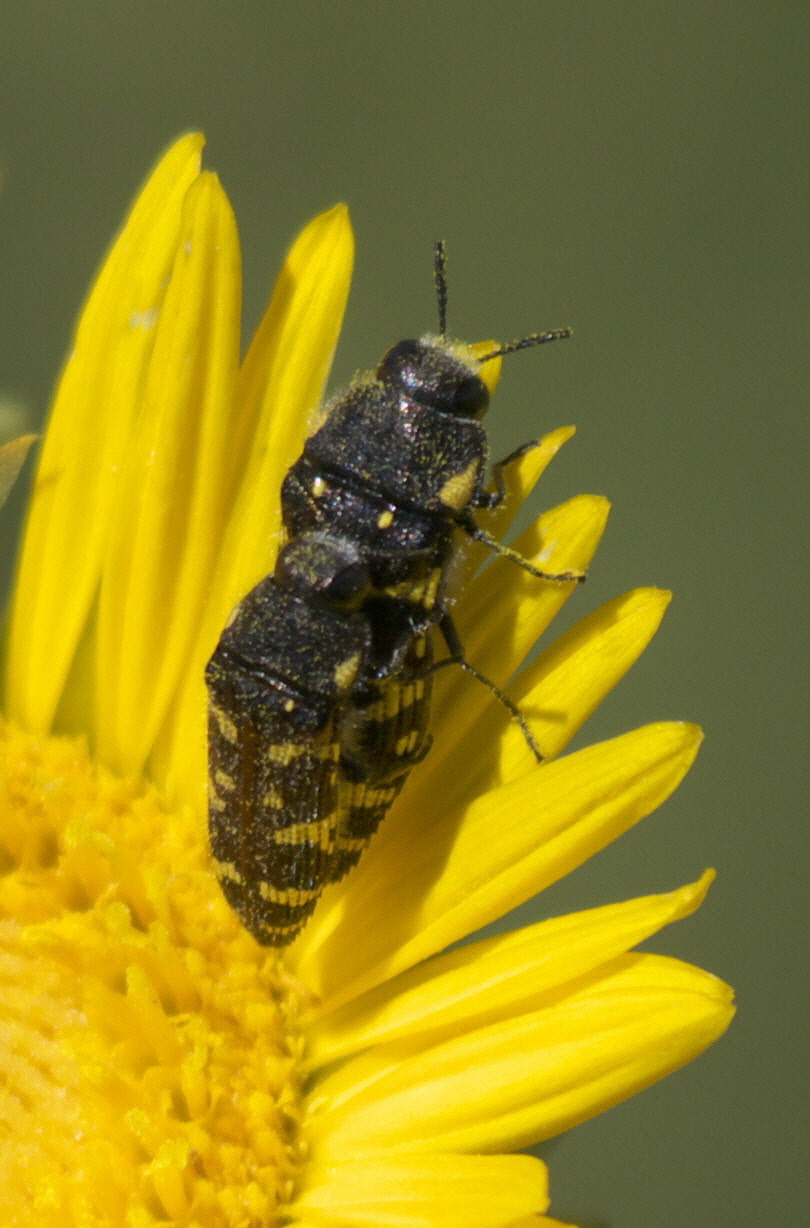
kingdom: Animalia
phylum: Arthropoda
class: Insecta
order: Coleoptera
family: Buprestidae
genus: Acmaeodera
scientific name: Acmaeodera macra
